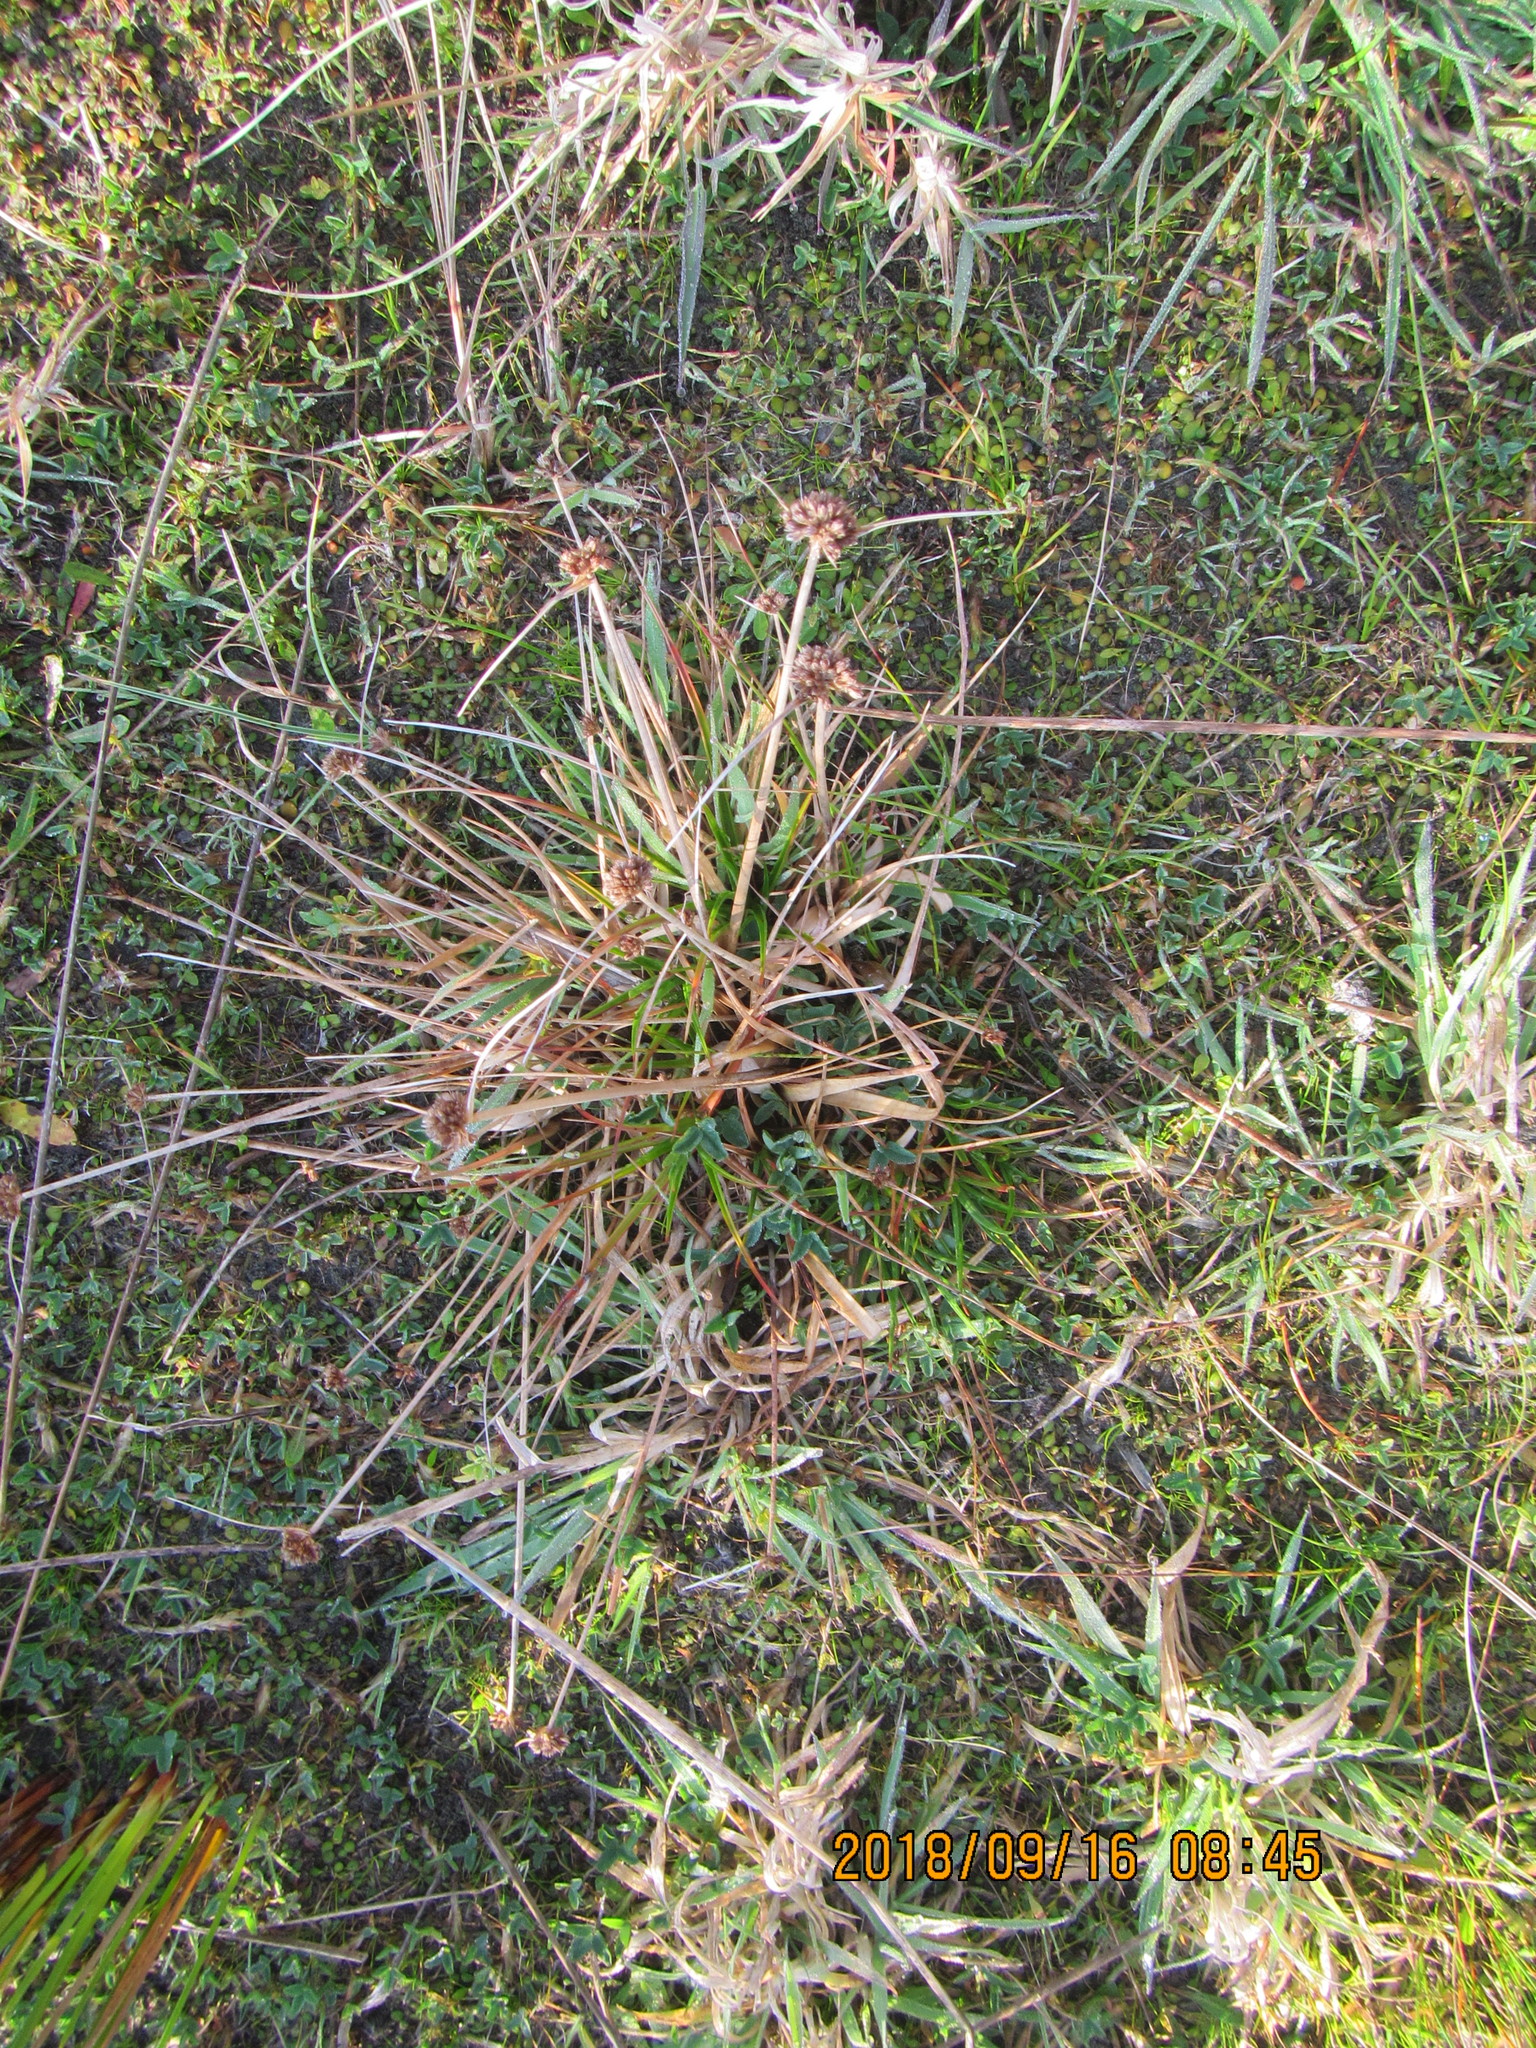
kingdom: Plantae
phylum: Tracheophyta
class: Liliopsida
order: Poales
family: Juncaceae
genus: Juncus
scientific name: Juncus caespiticius
